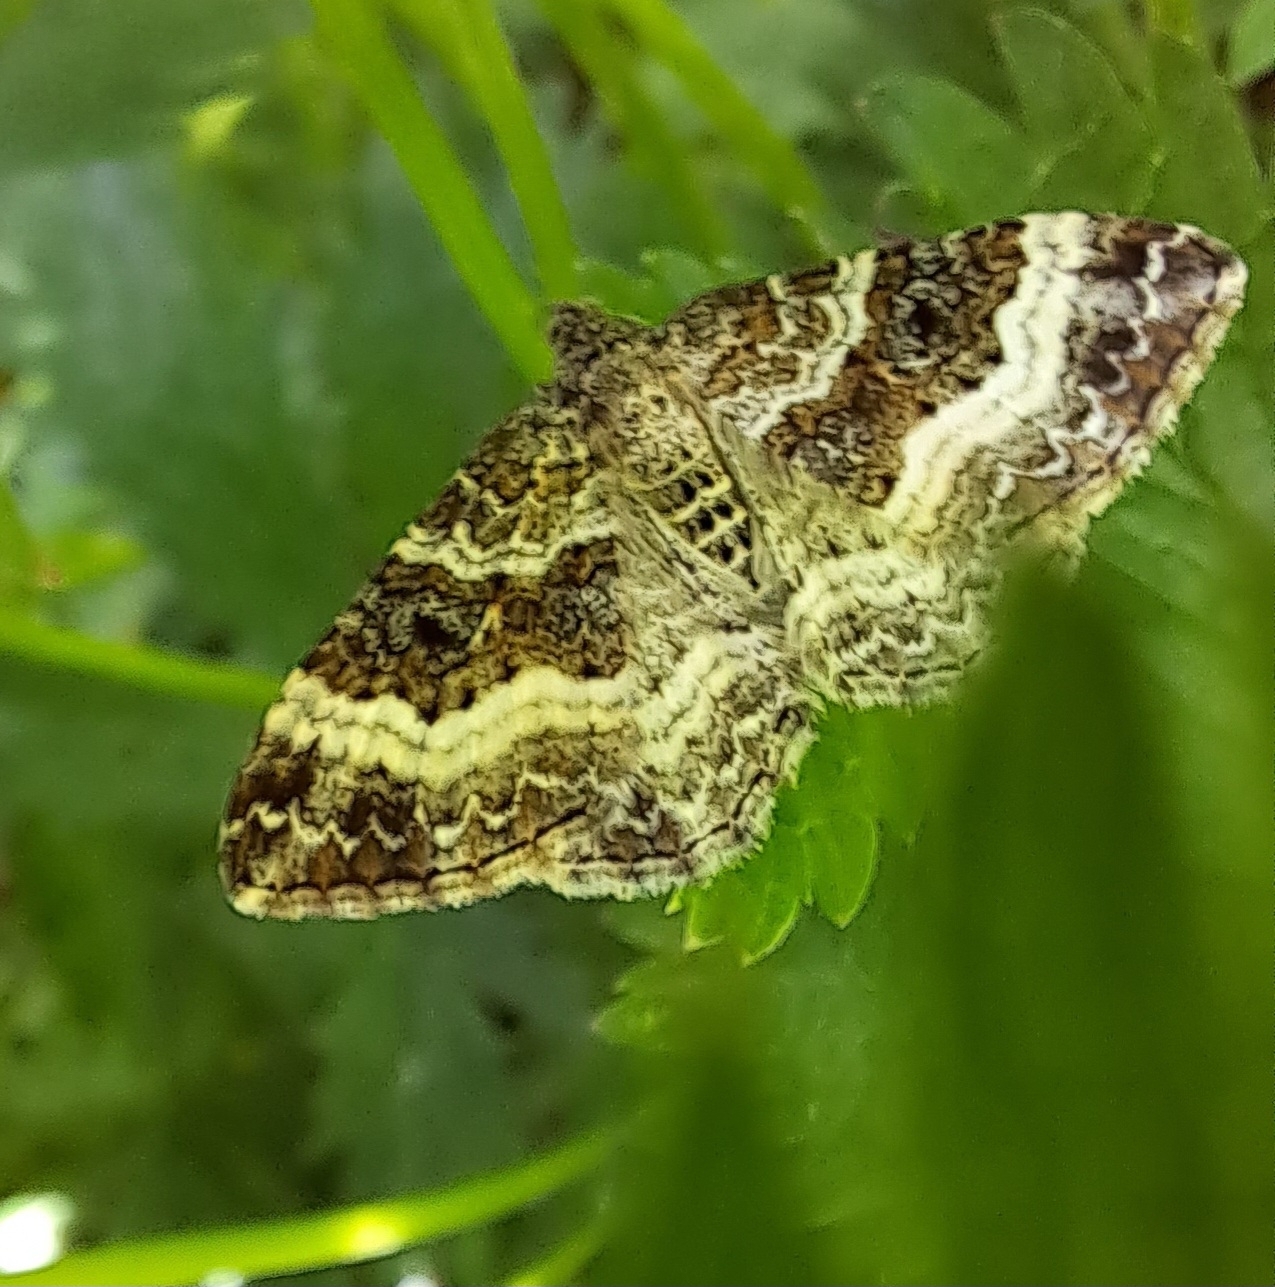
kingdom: Animalia
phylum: Arthropoda
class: Insecta
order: Lepidoptera
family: Geometridae
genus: Epirrhoe
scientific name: Epirrhoe alternata
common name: Common carpet
